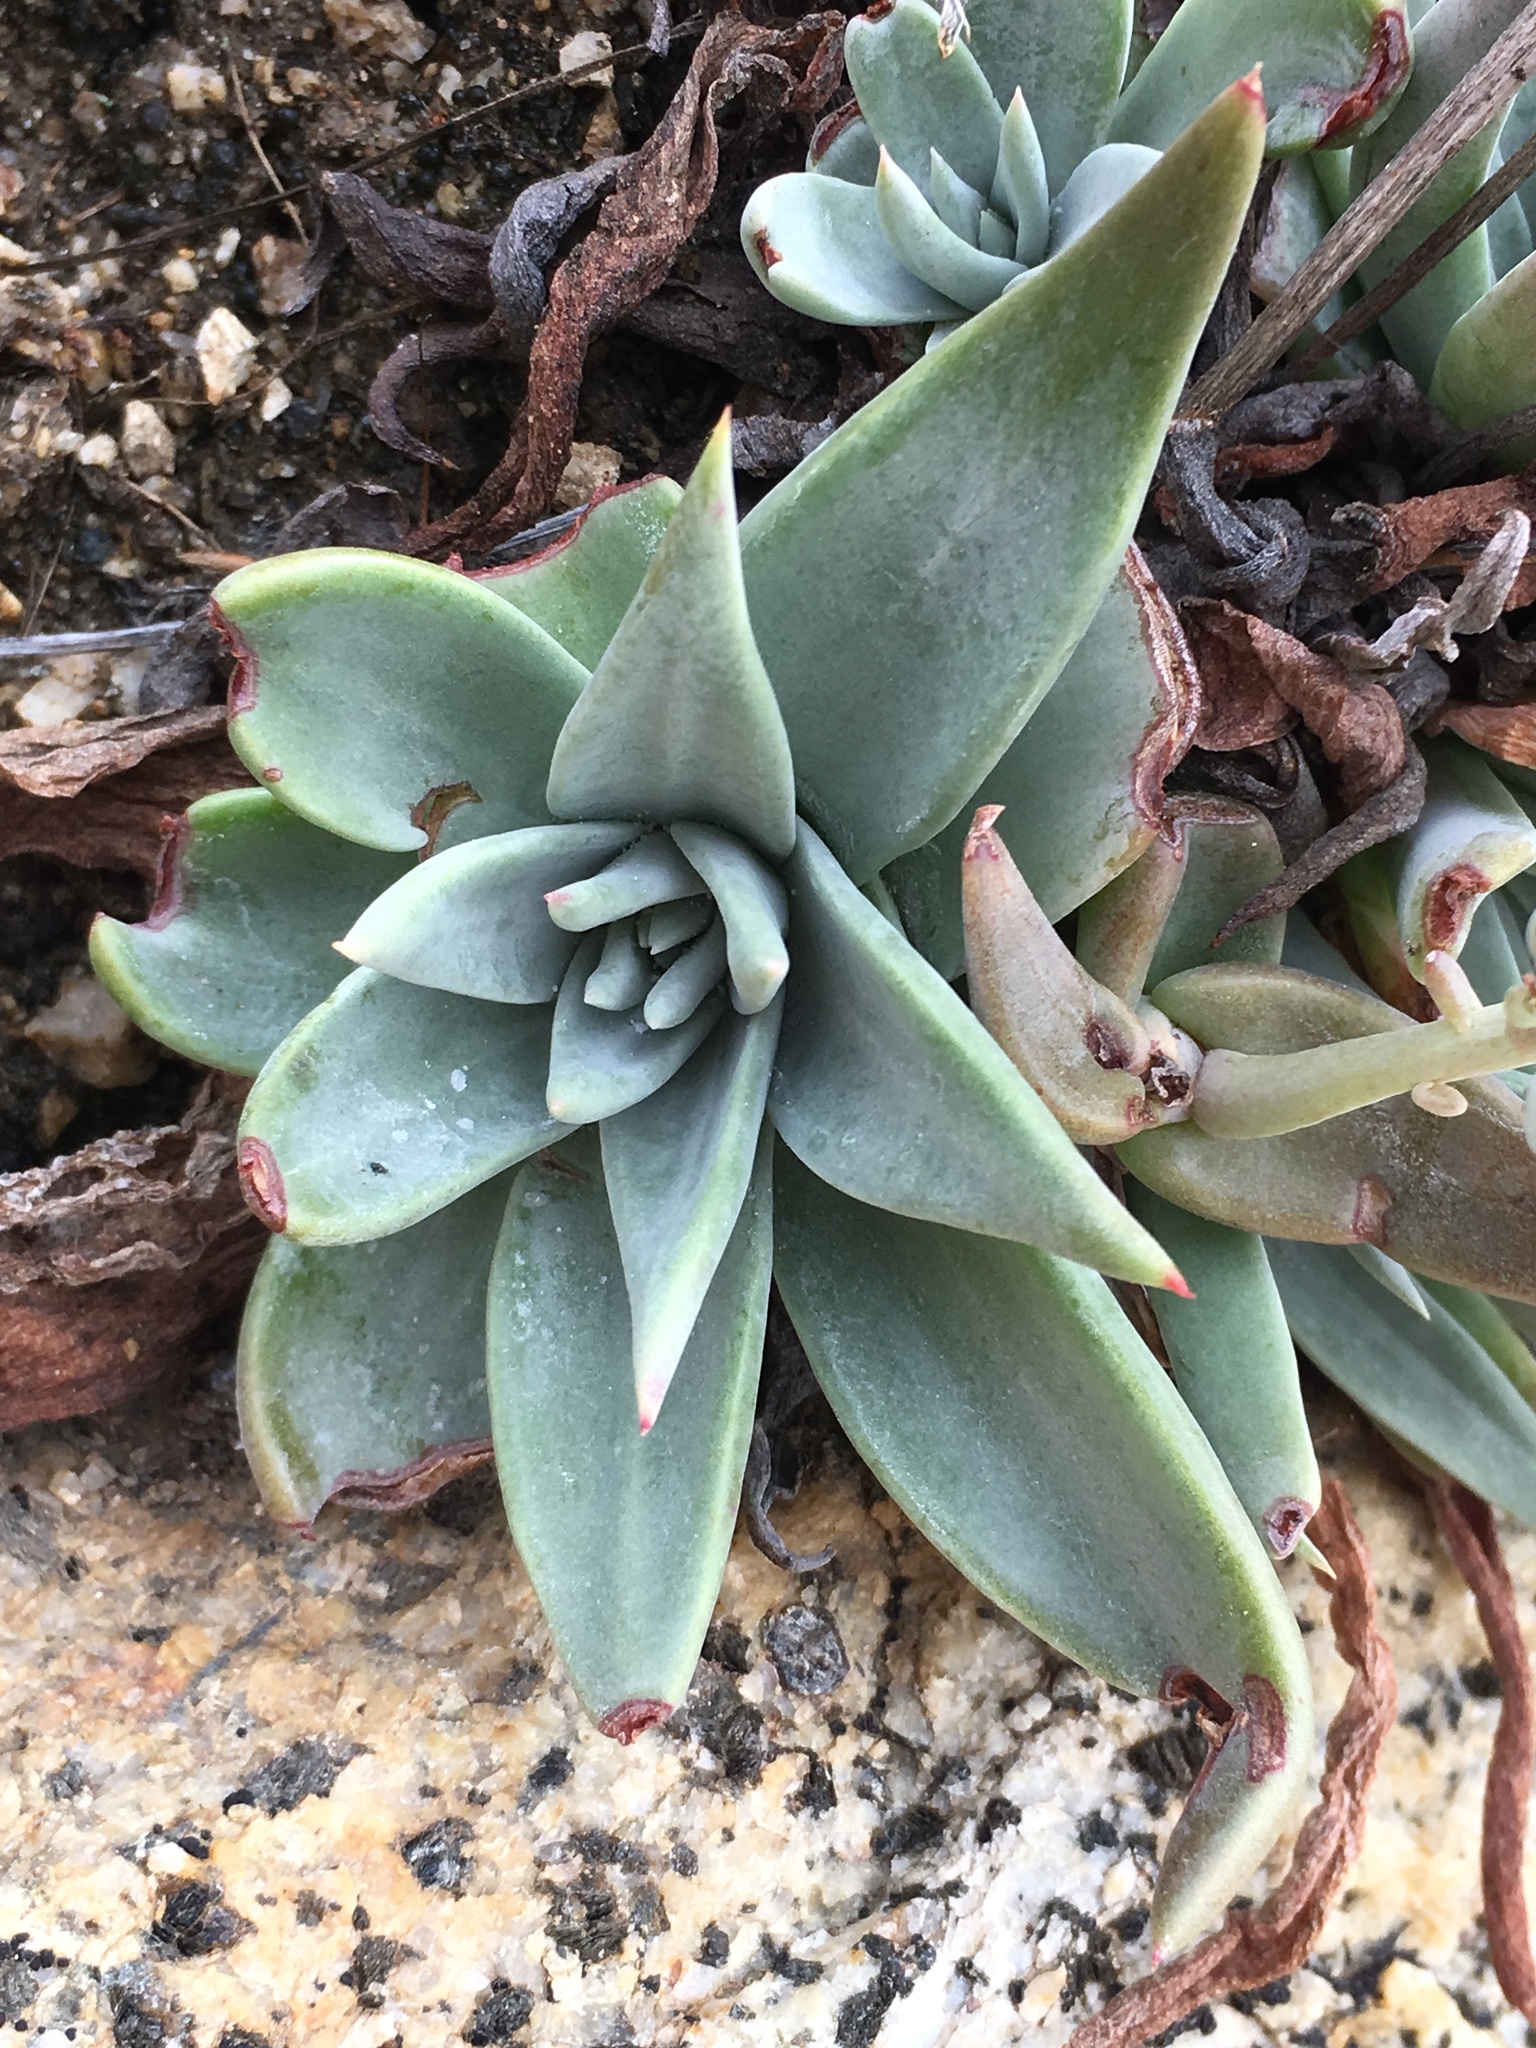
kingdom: Plantae
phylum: Tracheophyta
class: Magnoliopsida
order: Saxifragales
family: Crassulaceae
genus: Dudleya
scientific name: Dudleya abramsii
